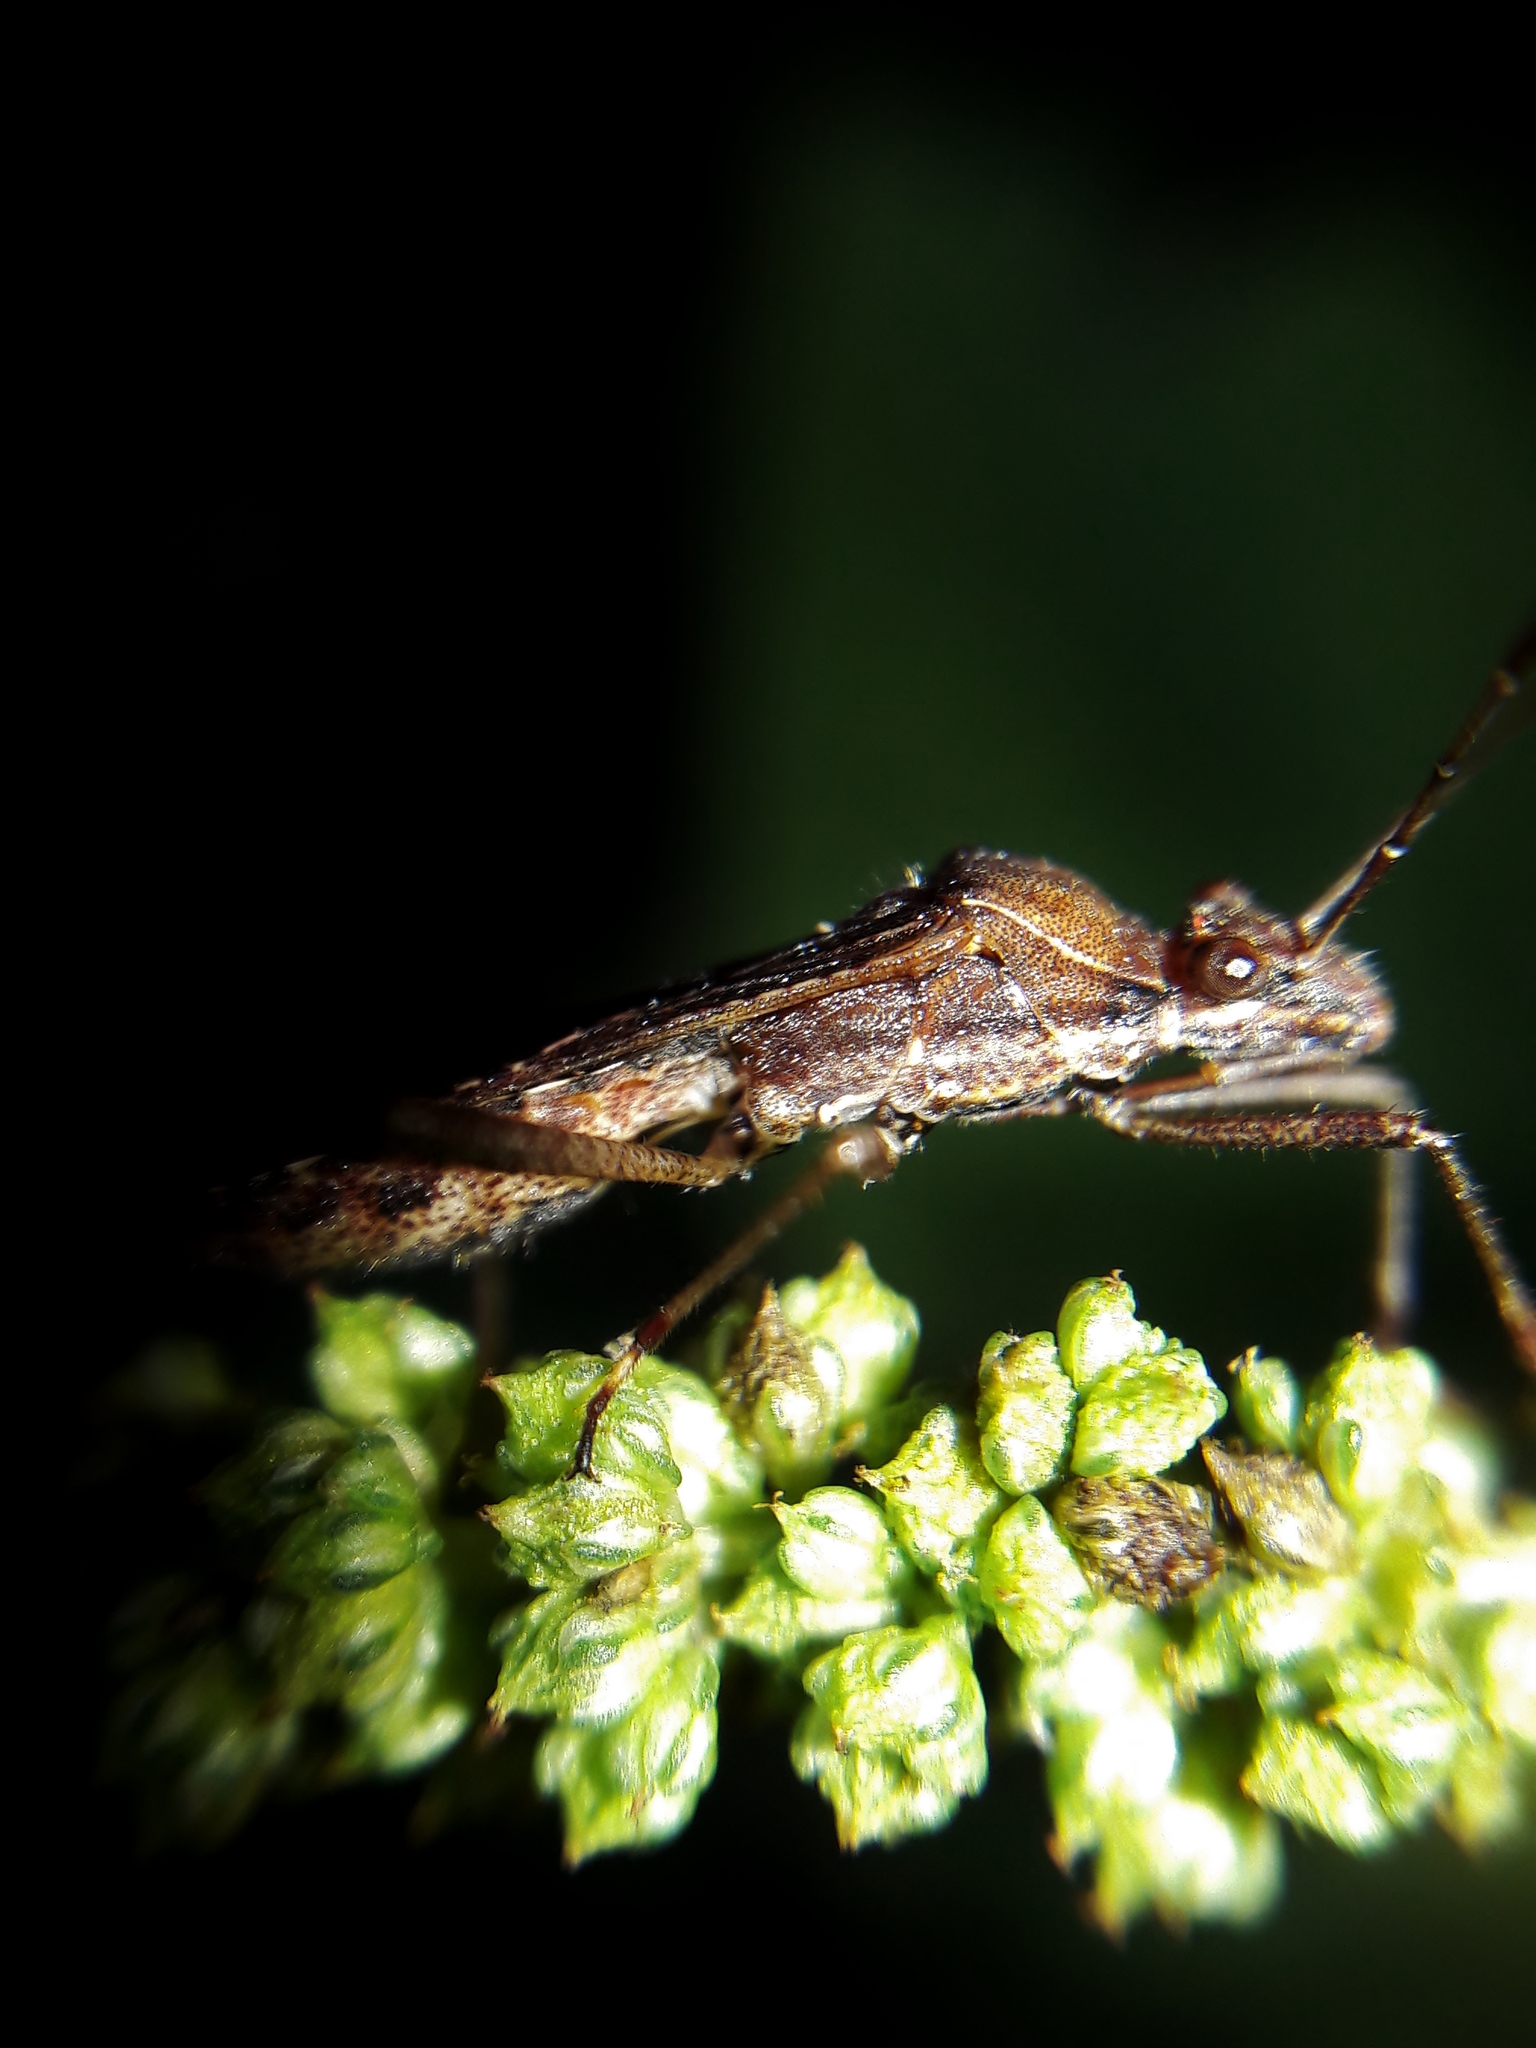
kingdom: Animalia
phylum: Arthropoda
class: Insecta
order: Hemiptera
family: Alydidae
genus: Neomegalotomus
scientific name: Neomegalotomus parvus
